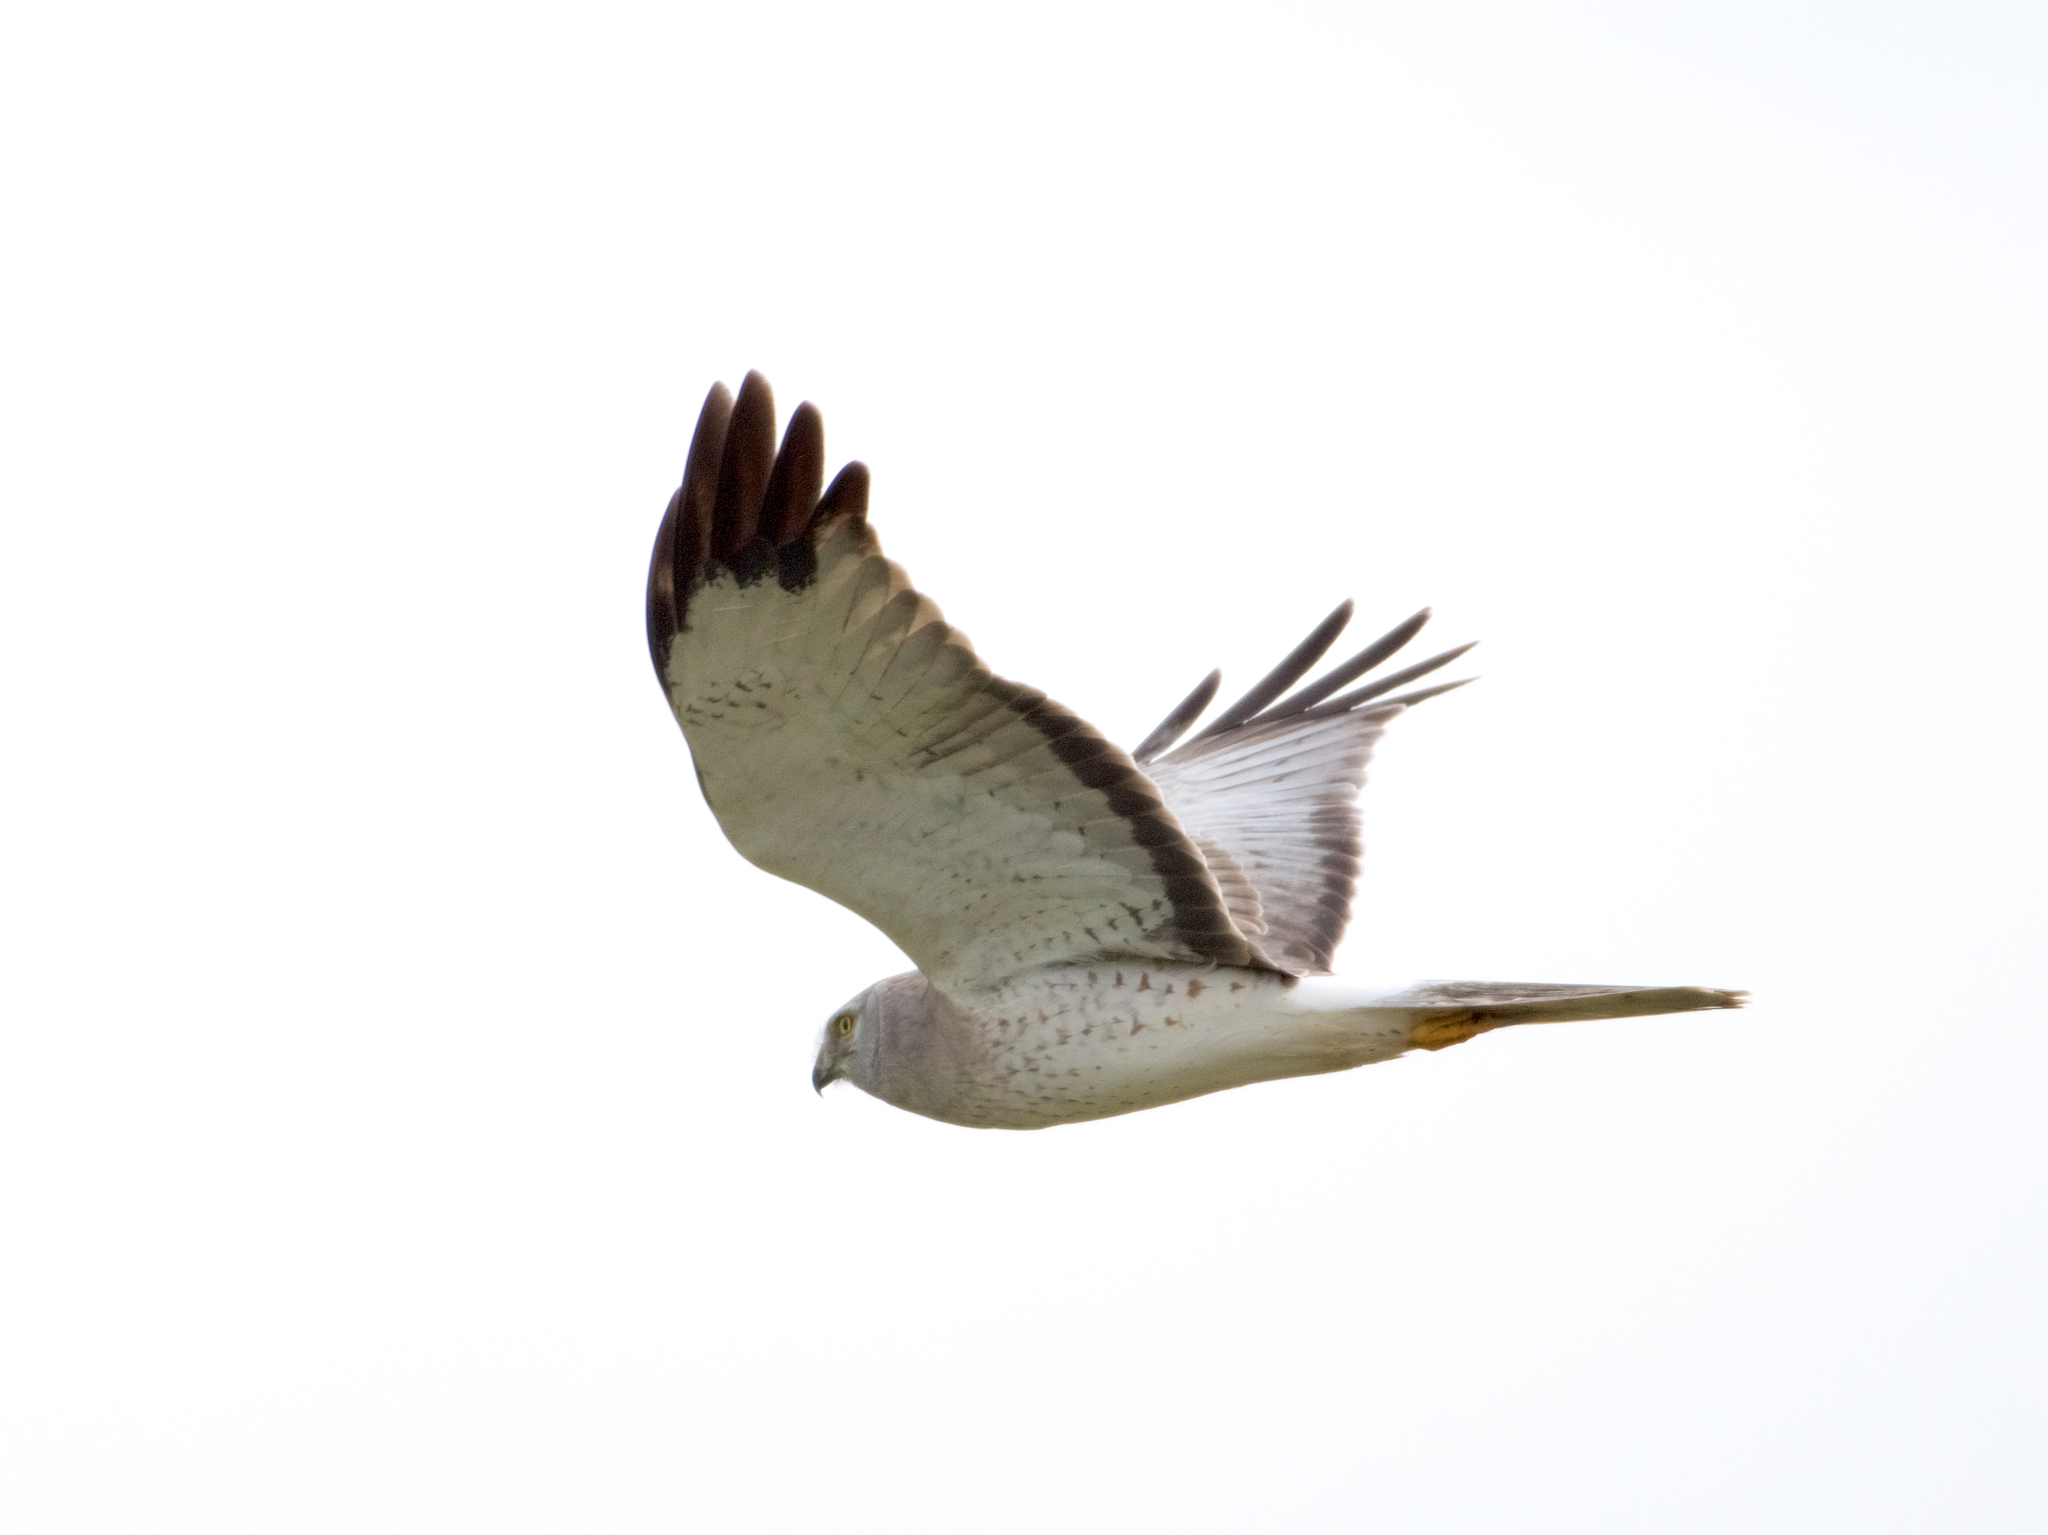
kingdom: Animalia
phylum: Chordata
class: Aves
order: Accipitriformes
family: Accipitridae
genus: Circus
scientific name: Circus cyaneus
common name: Hen harrier
